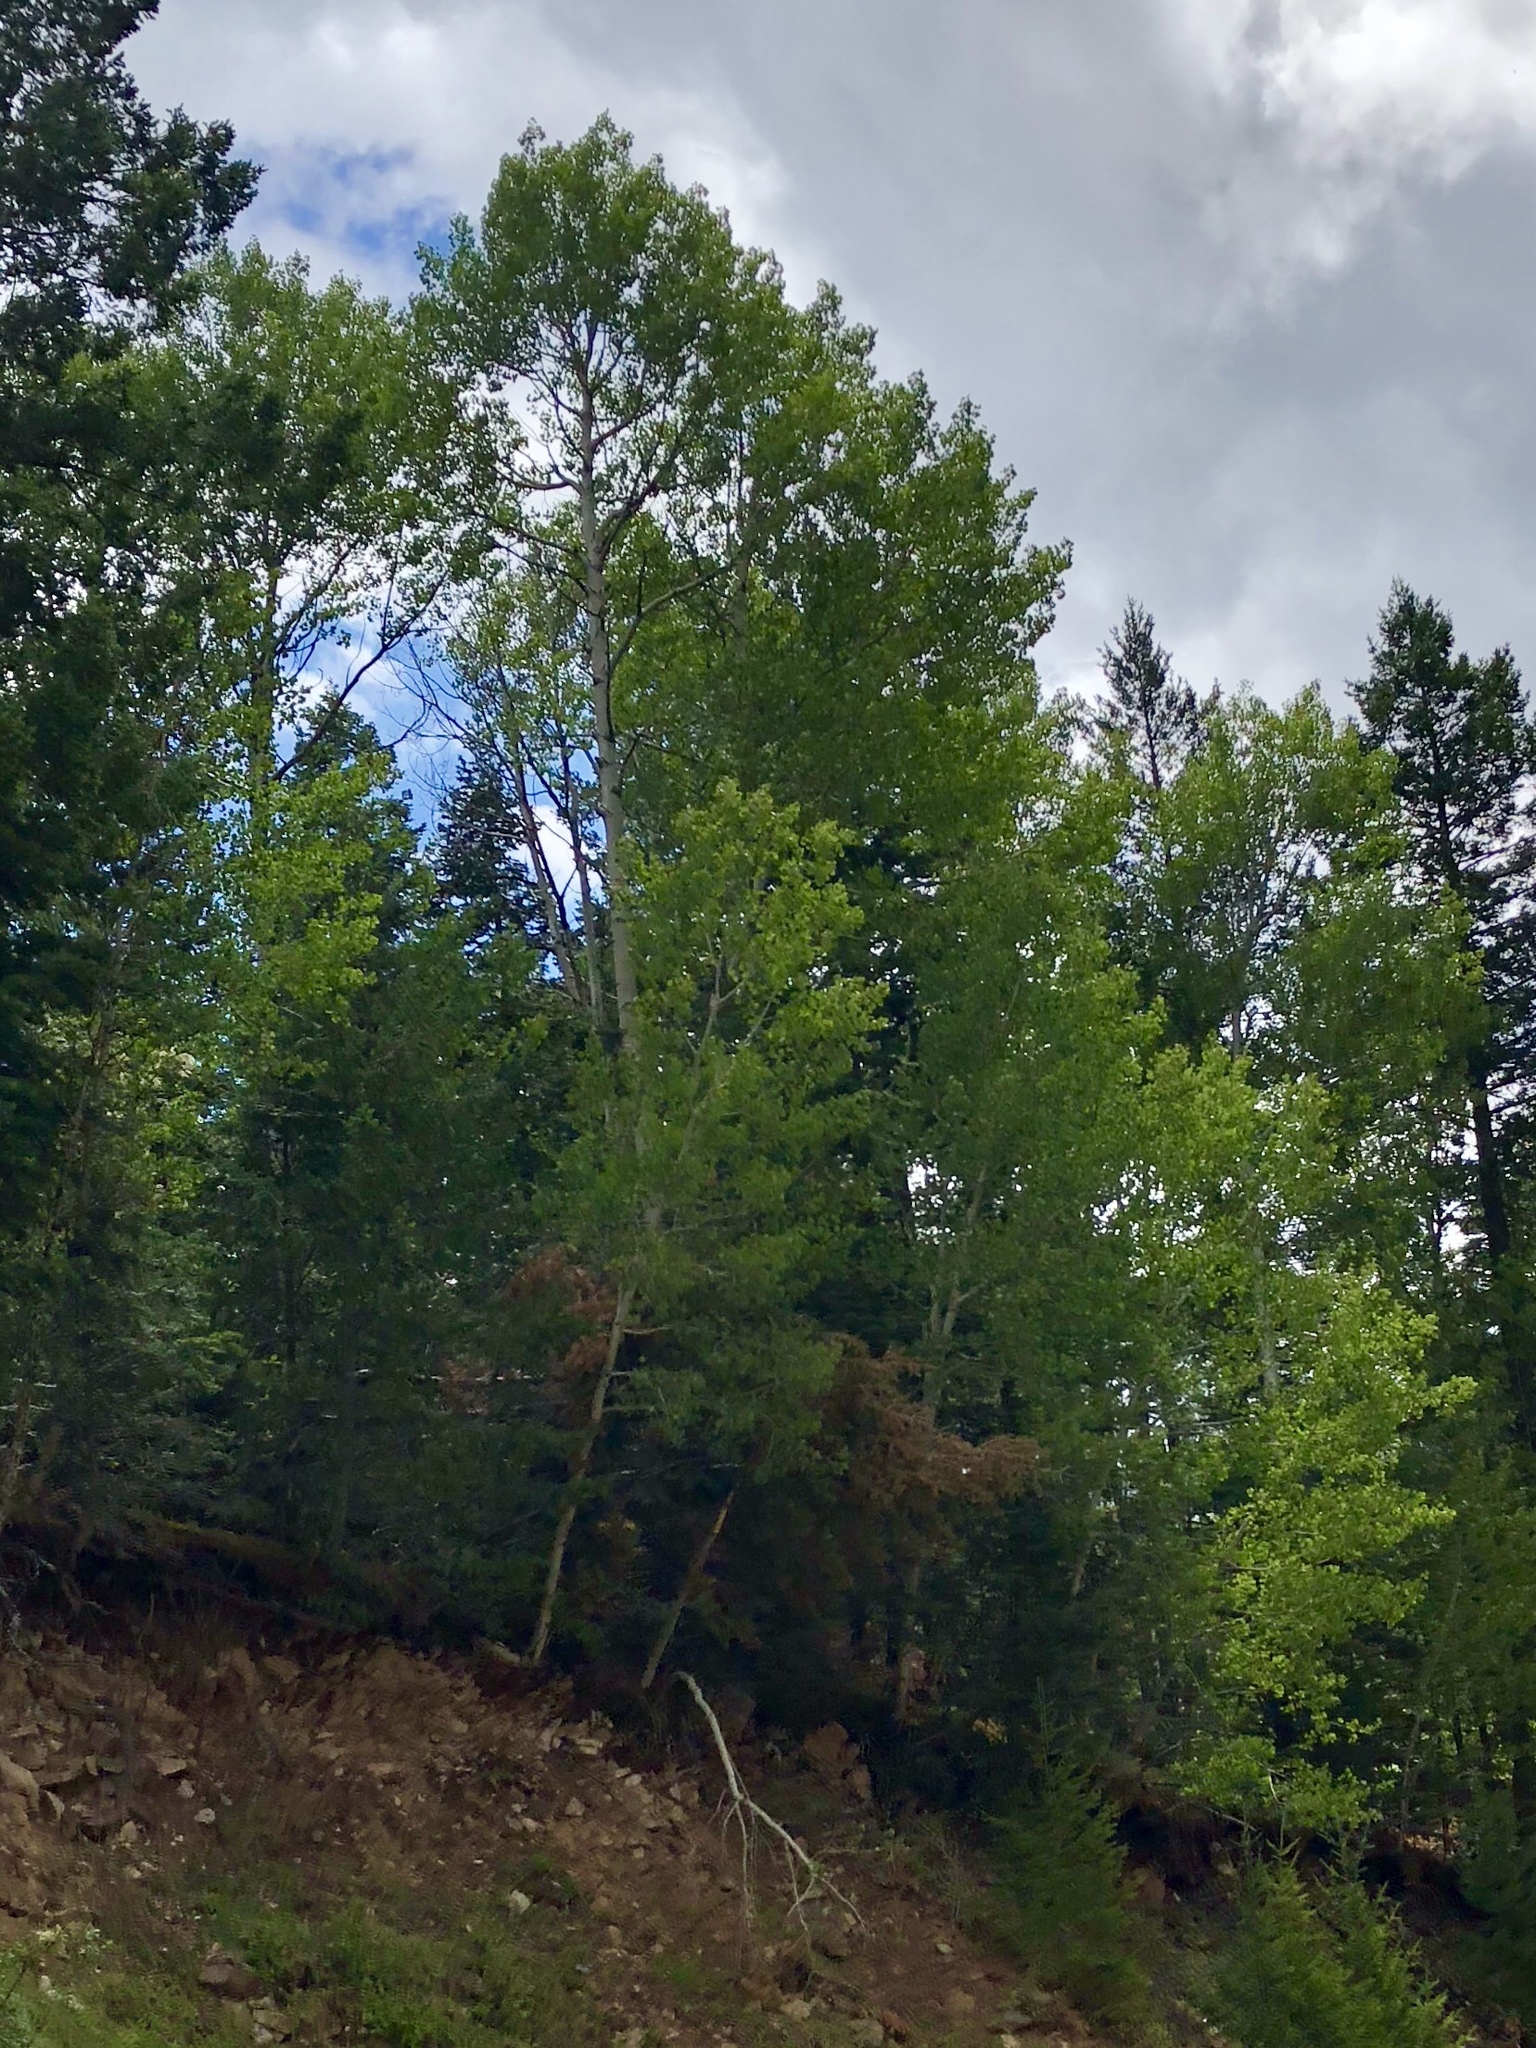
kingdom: Plantae
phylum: Tracheophyta
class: Magnoliopsida
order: Malpighiales
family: Salicaceae
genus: Populus
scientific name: Populus tremuloides
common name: Quaking aspen
